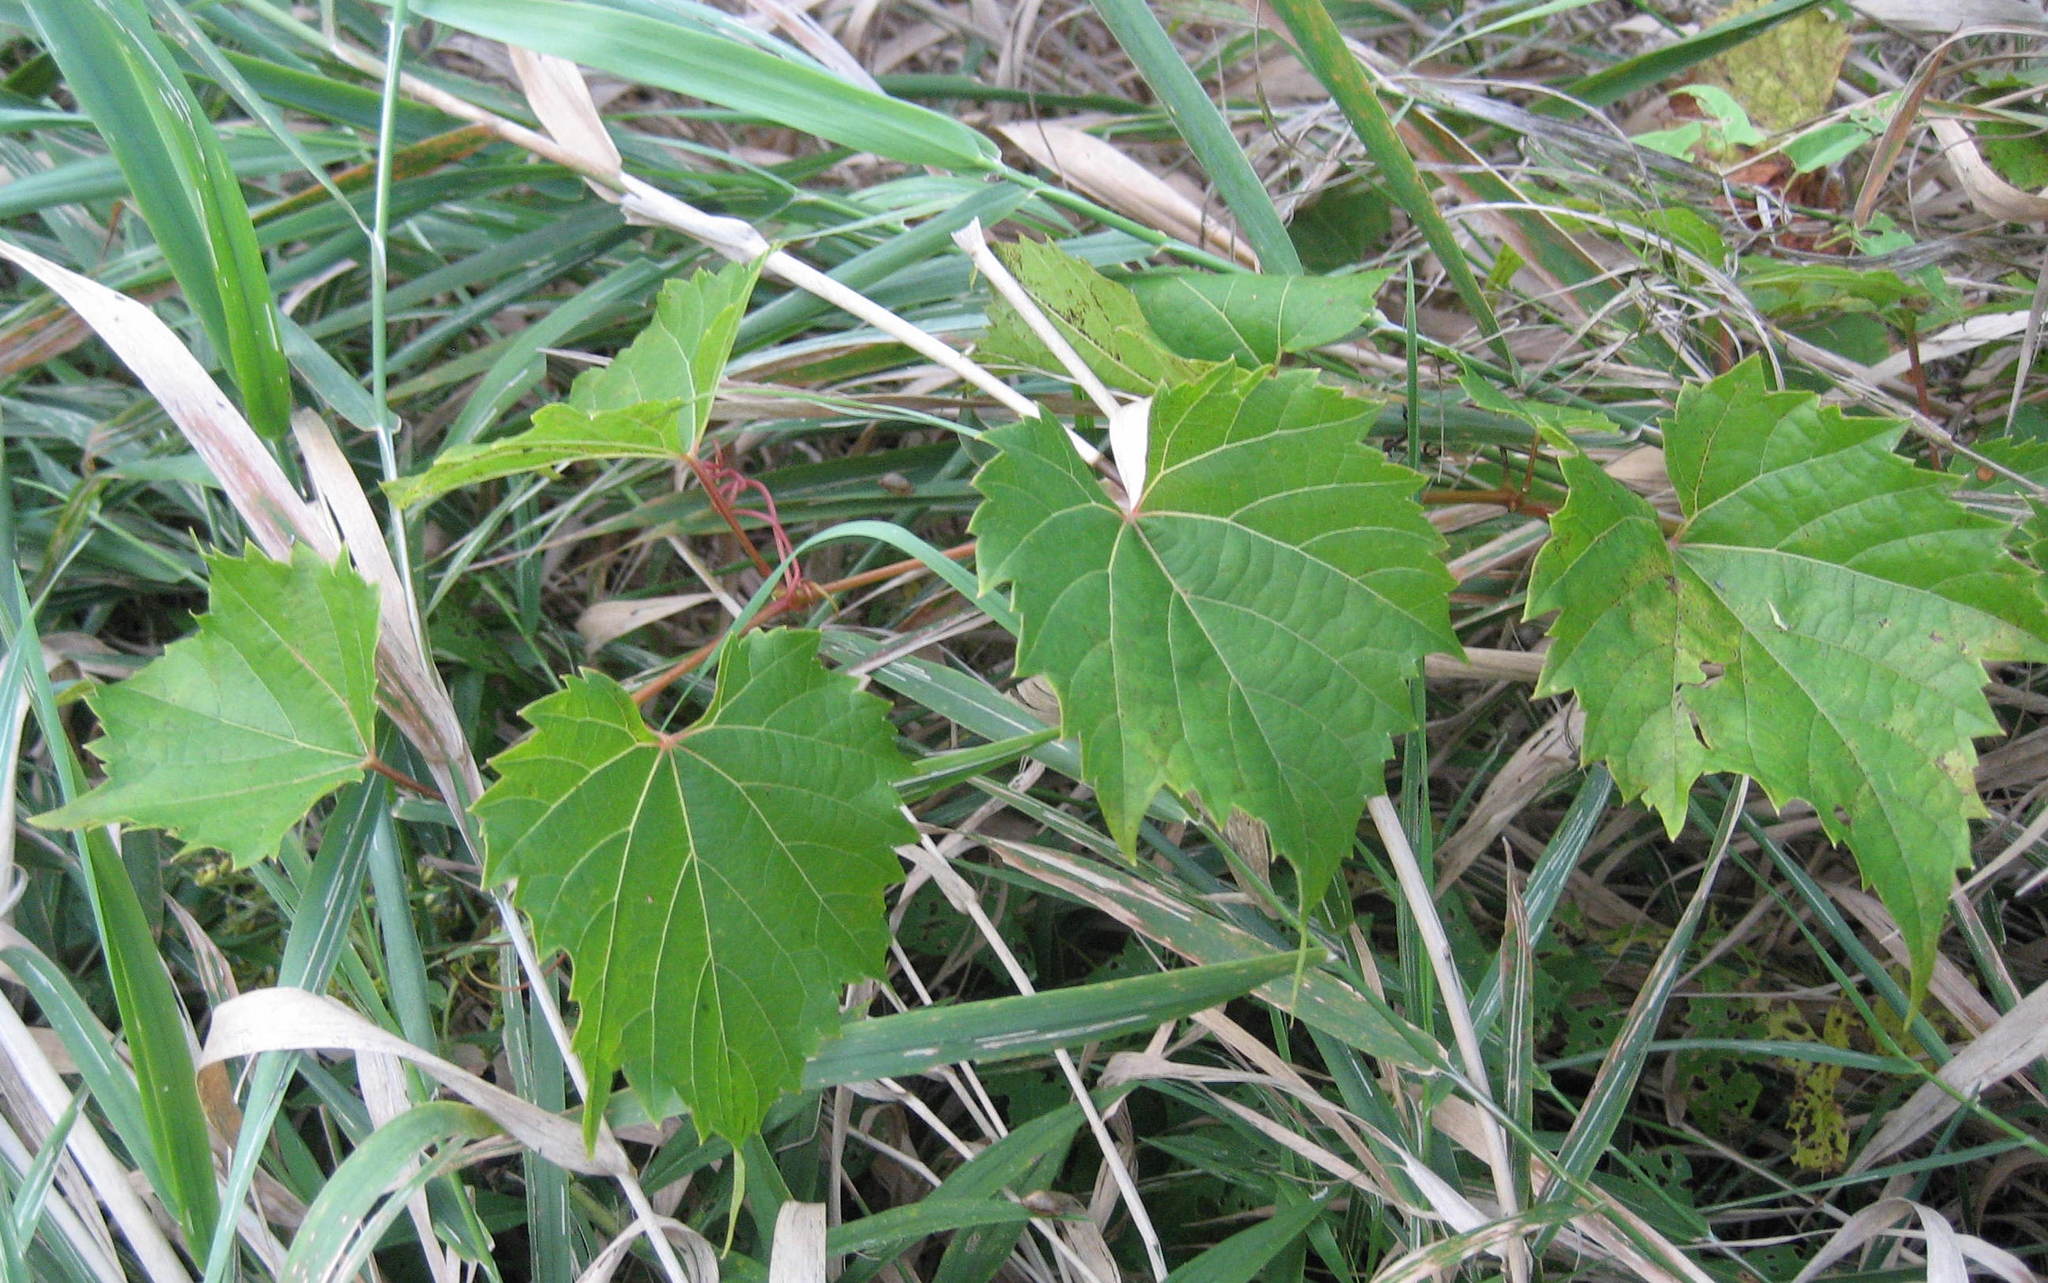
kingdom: Plantae
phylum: Tracheophyta
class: Magnoliopsida
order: Vitales
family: Vitaceae
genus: Vitis
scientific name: Vitis riparia
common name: Frost grape
